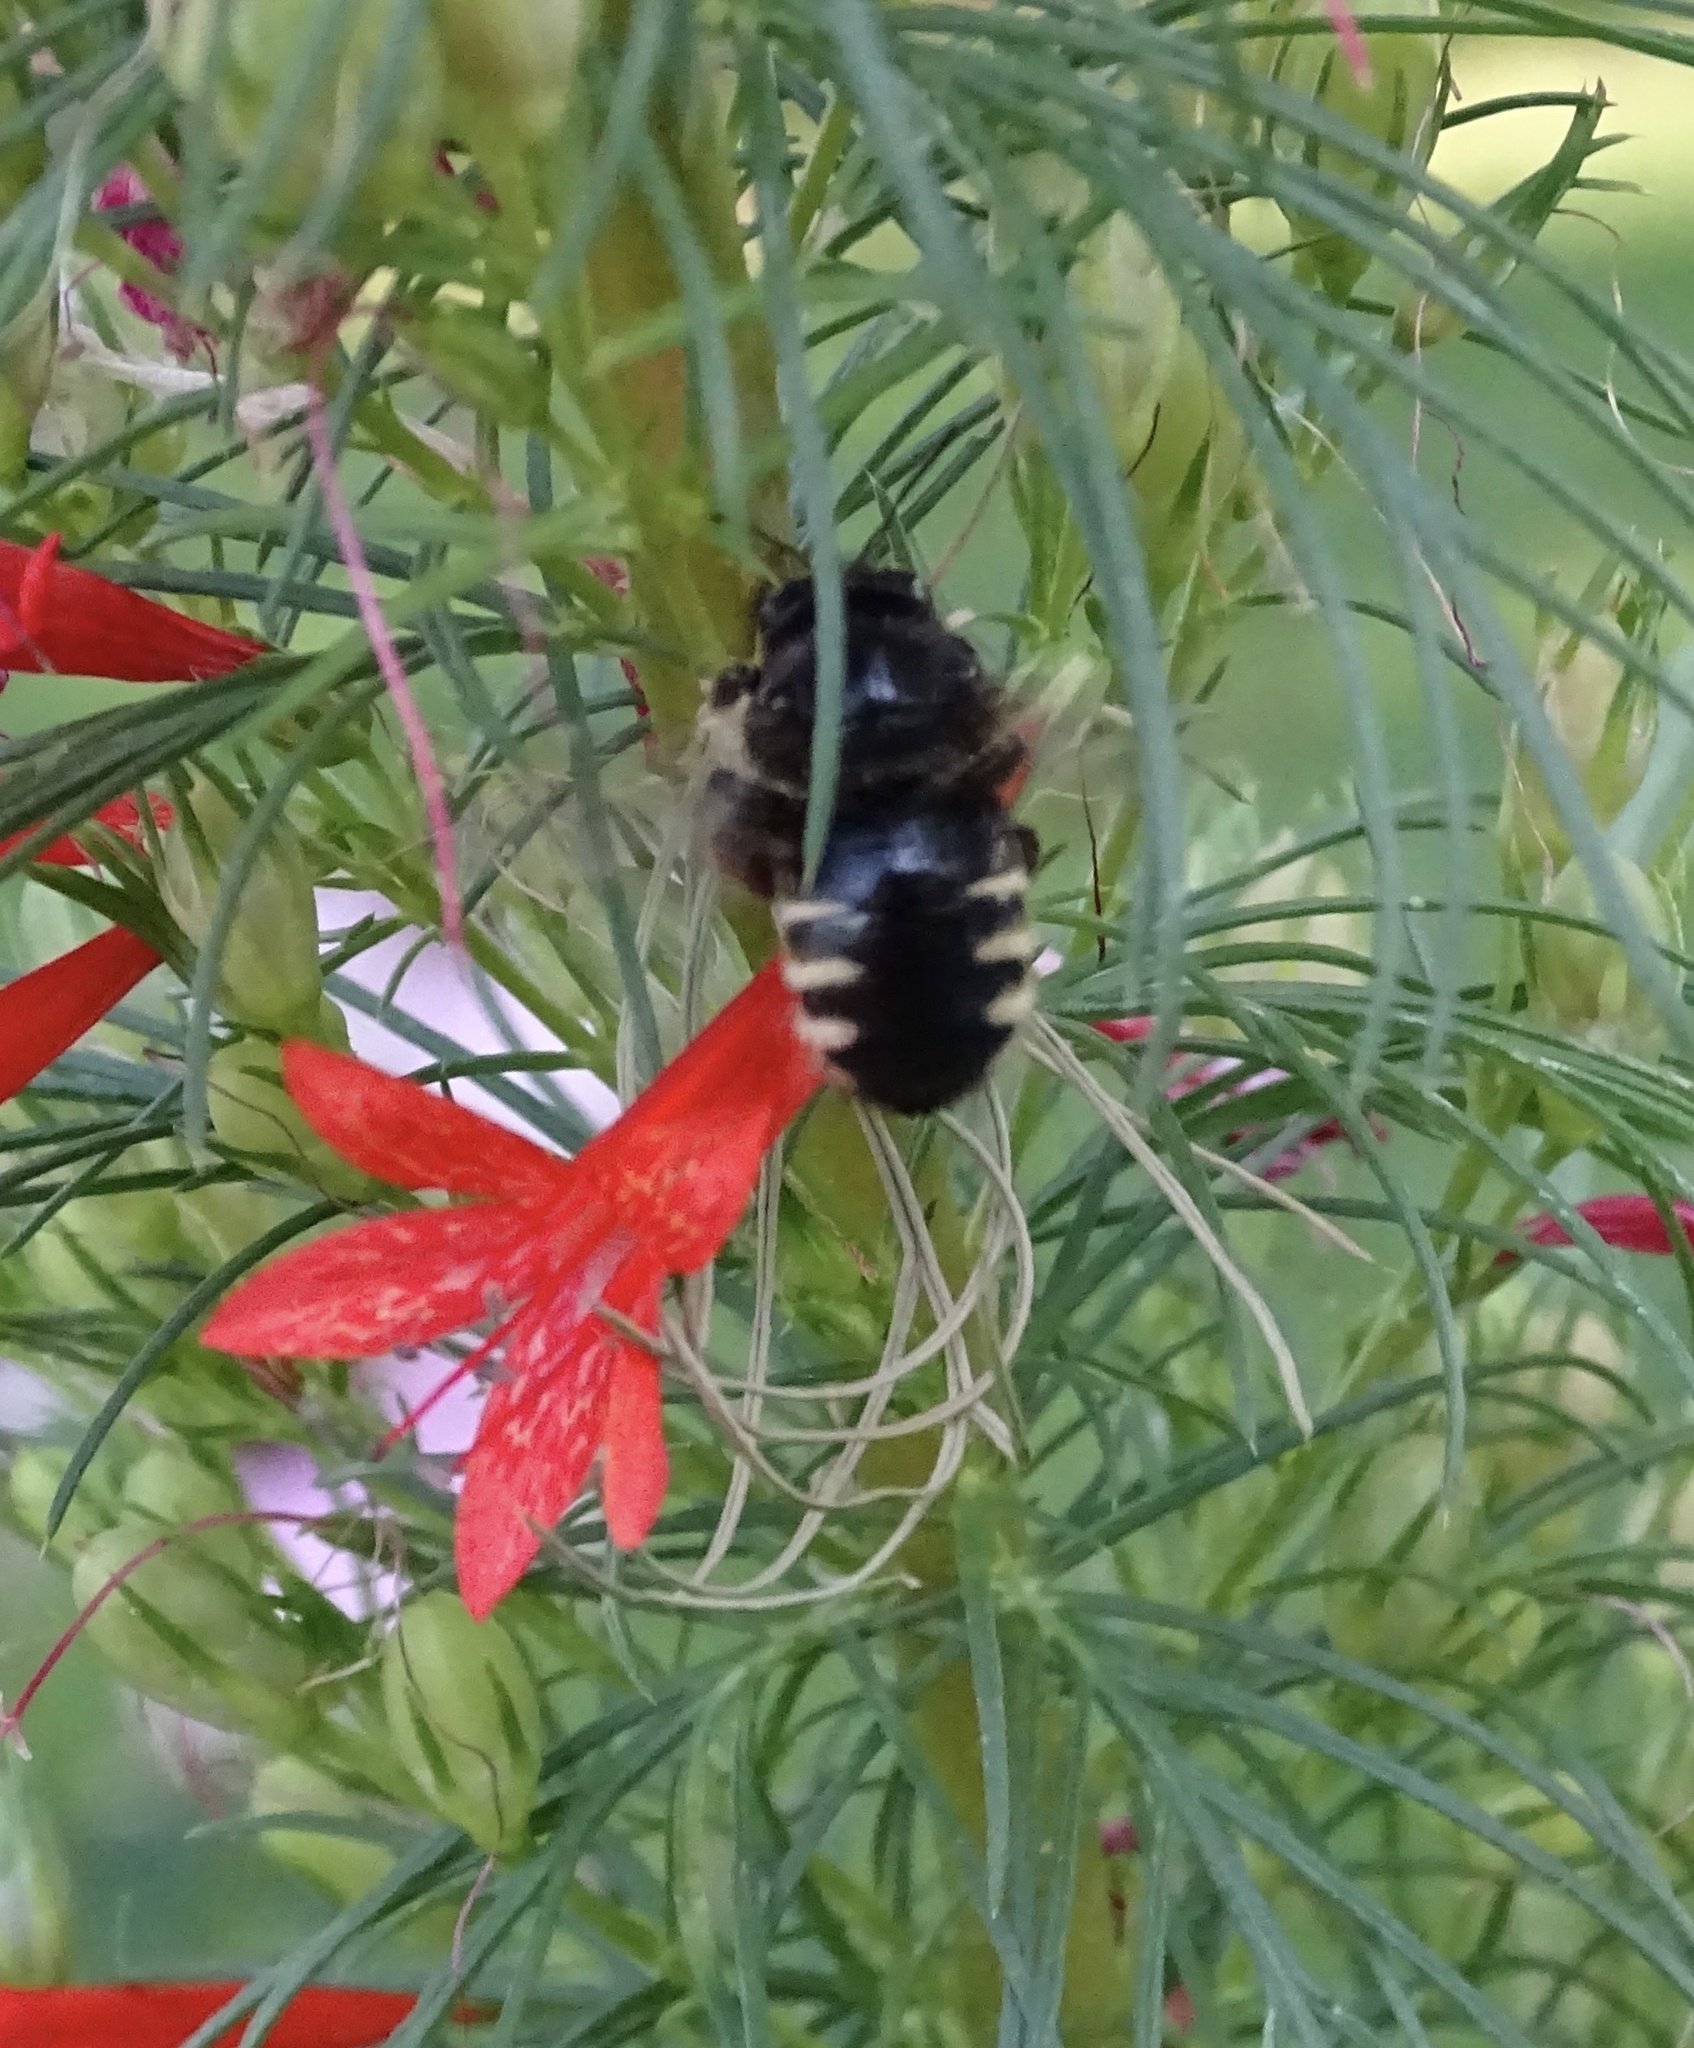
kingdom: Animalia
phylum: Arthropoda
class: Insecta
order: Hymenoptera
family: Apidae
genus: Xylocopa
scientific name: Xylocopa tabaniformis
